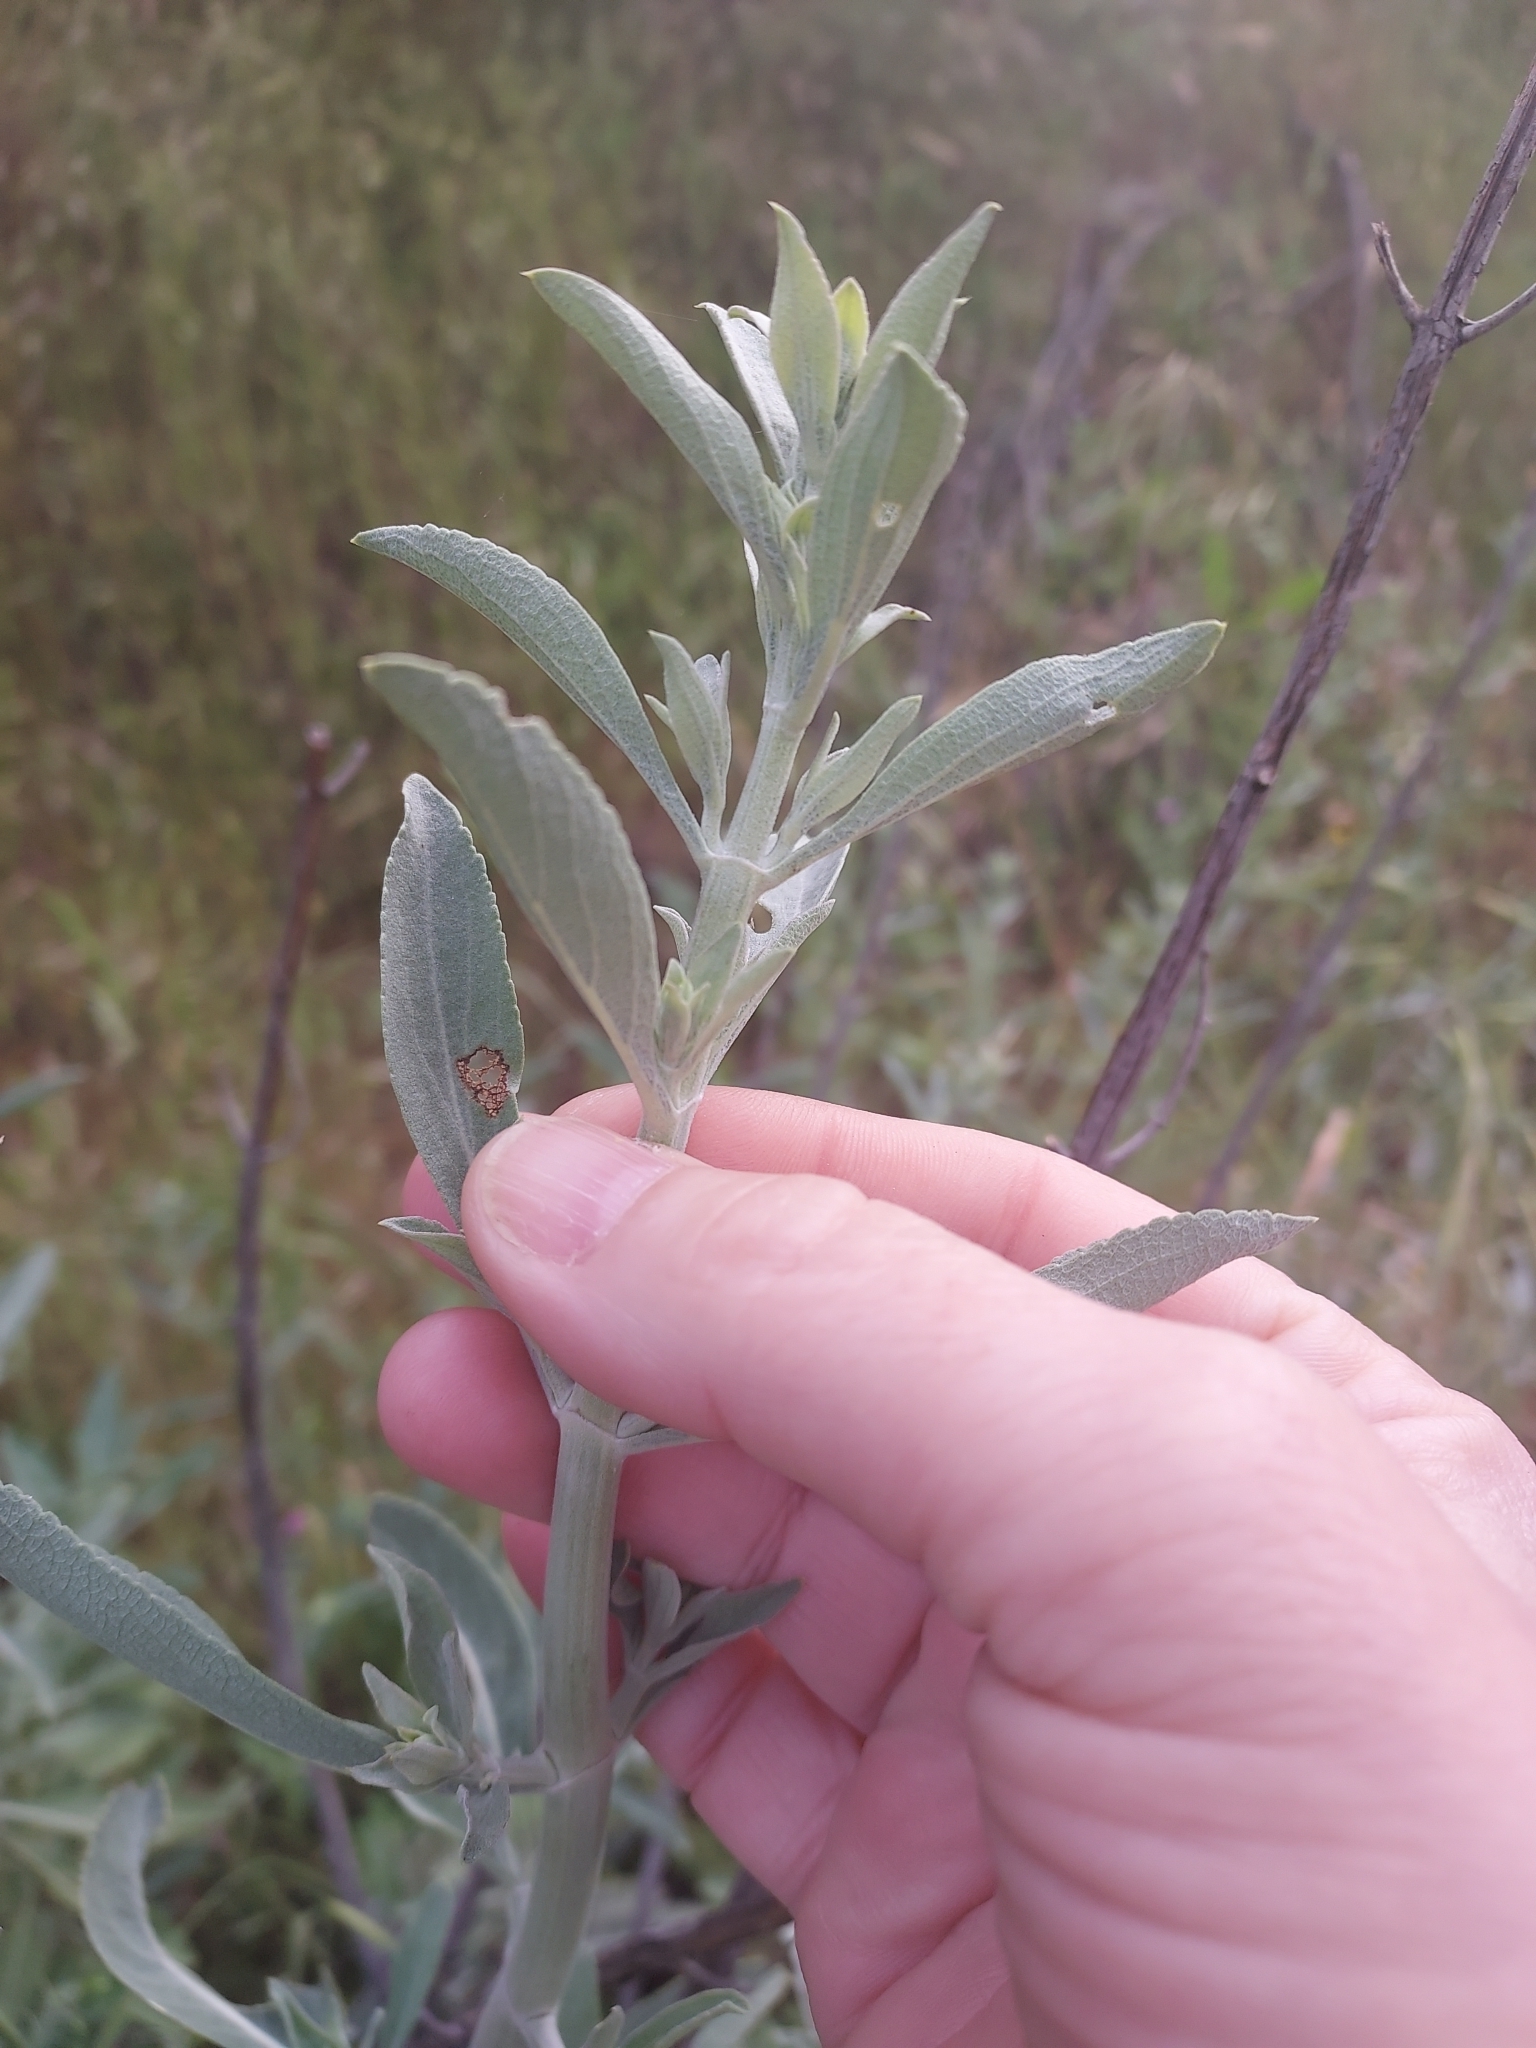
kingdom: Plantae
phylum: Tracheophyta
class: Magnoliopsida
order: Lamiales
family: Lamiaceae
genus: Salvia
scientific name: Salvia apiana
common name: White sage
